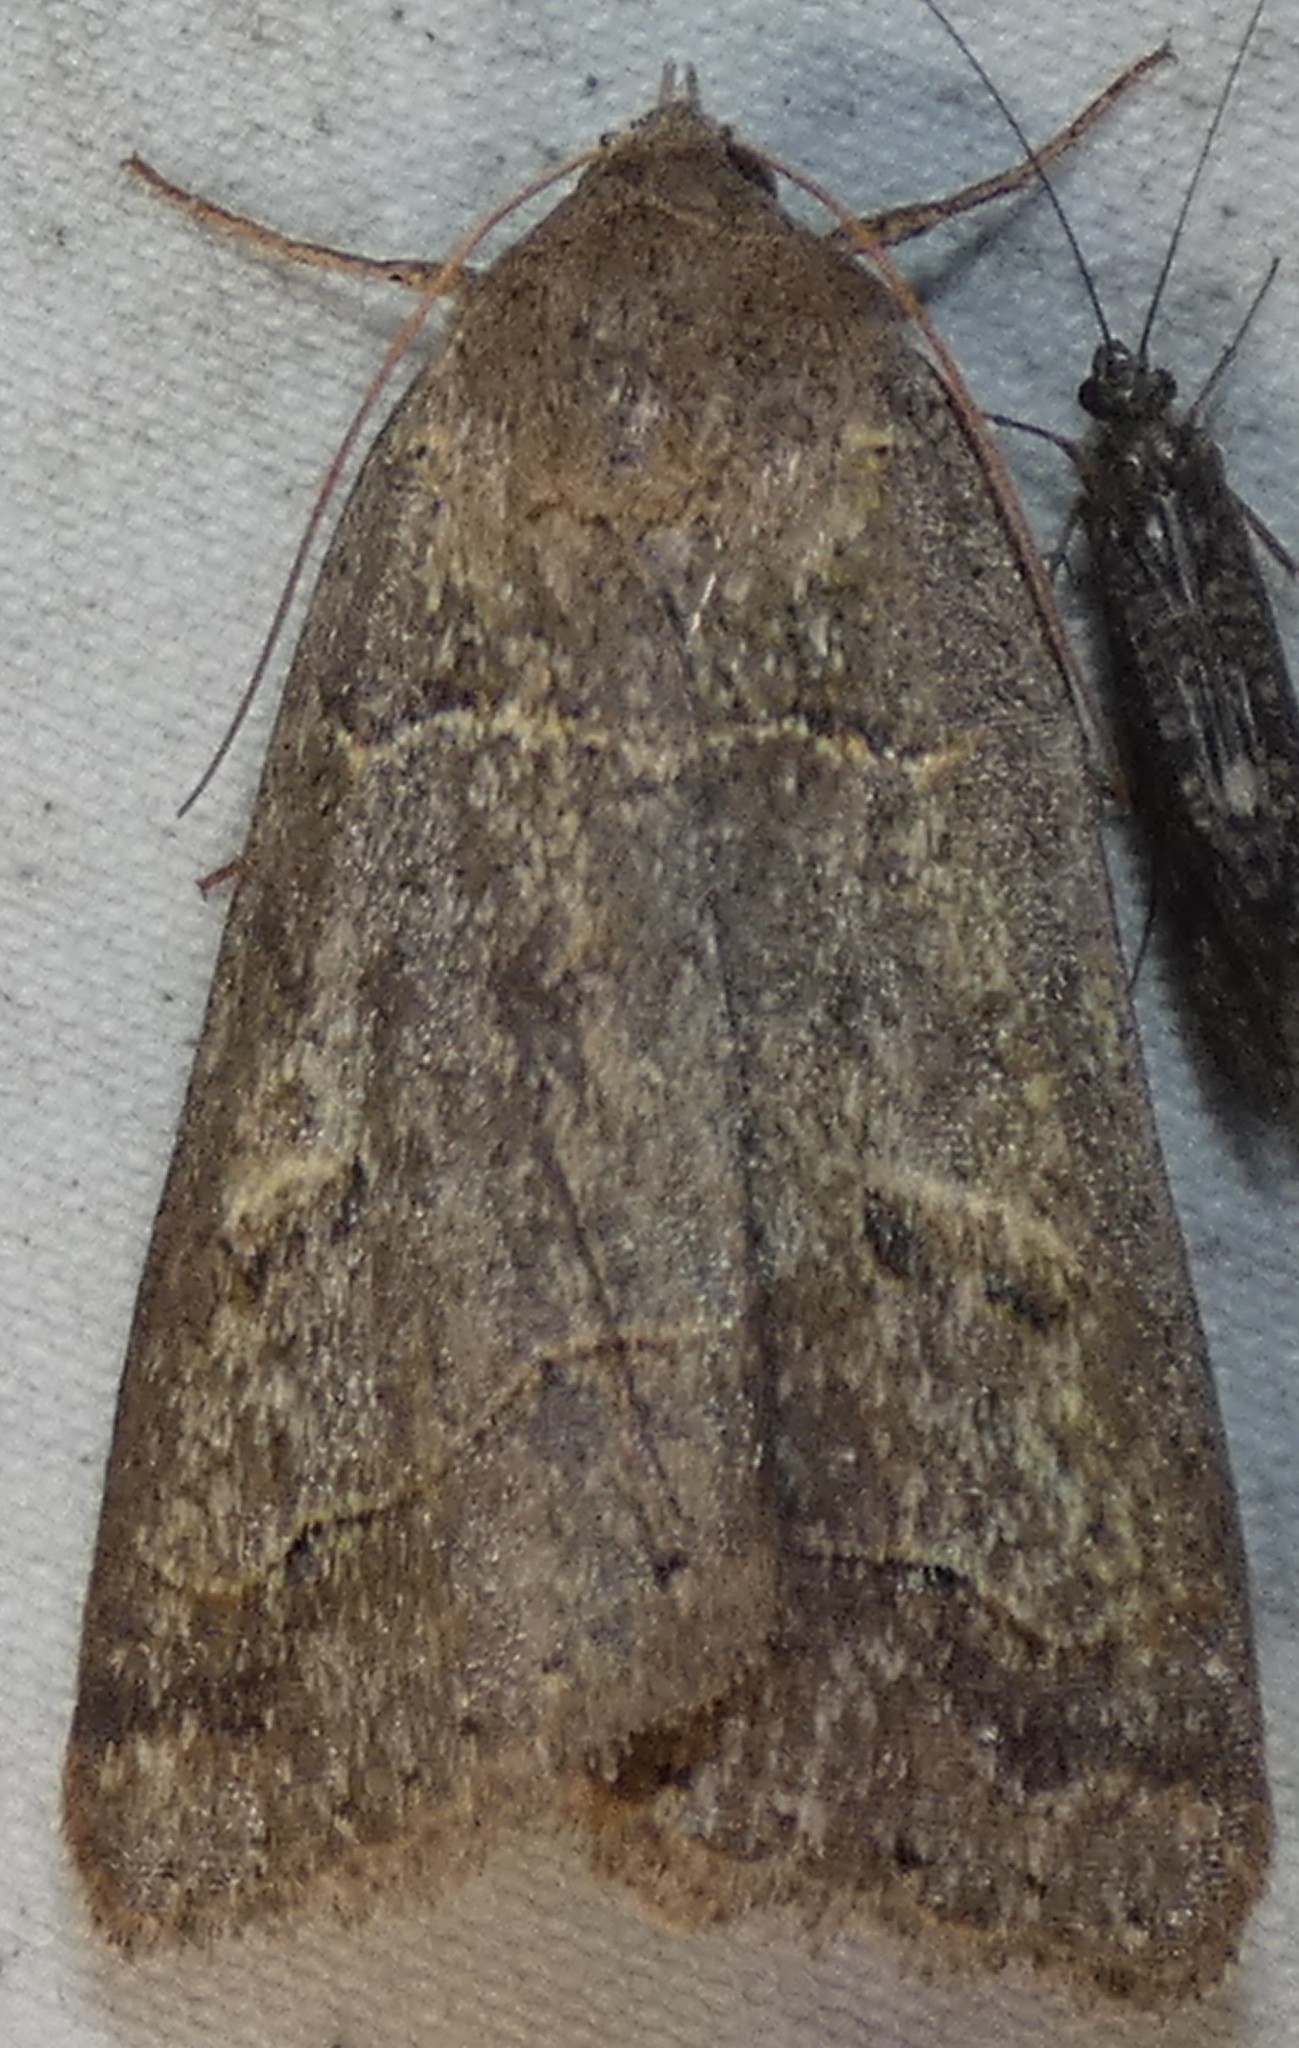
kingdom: Animalia
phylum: Arthropoda
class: Insecta
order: Lepidoptera
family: Erebidae
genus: Phoberia
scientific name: Phoberia atomaris
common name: Common oak moth
